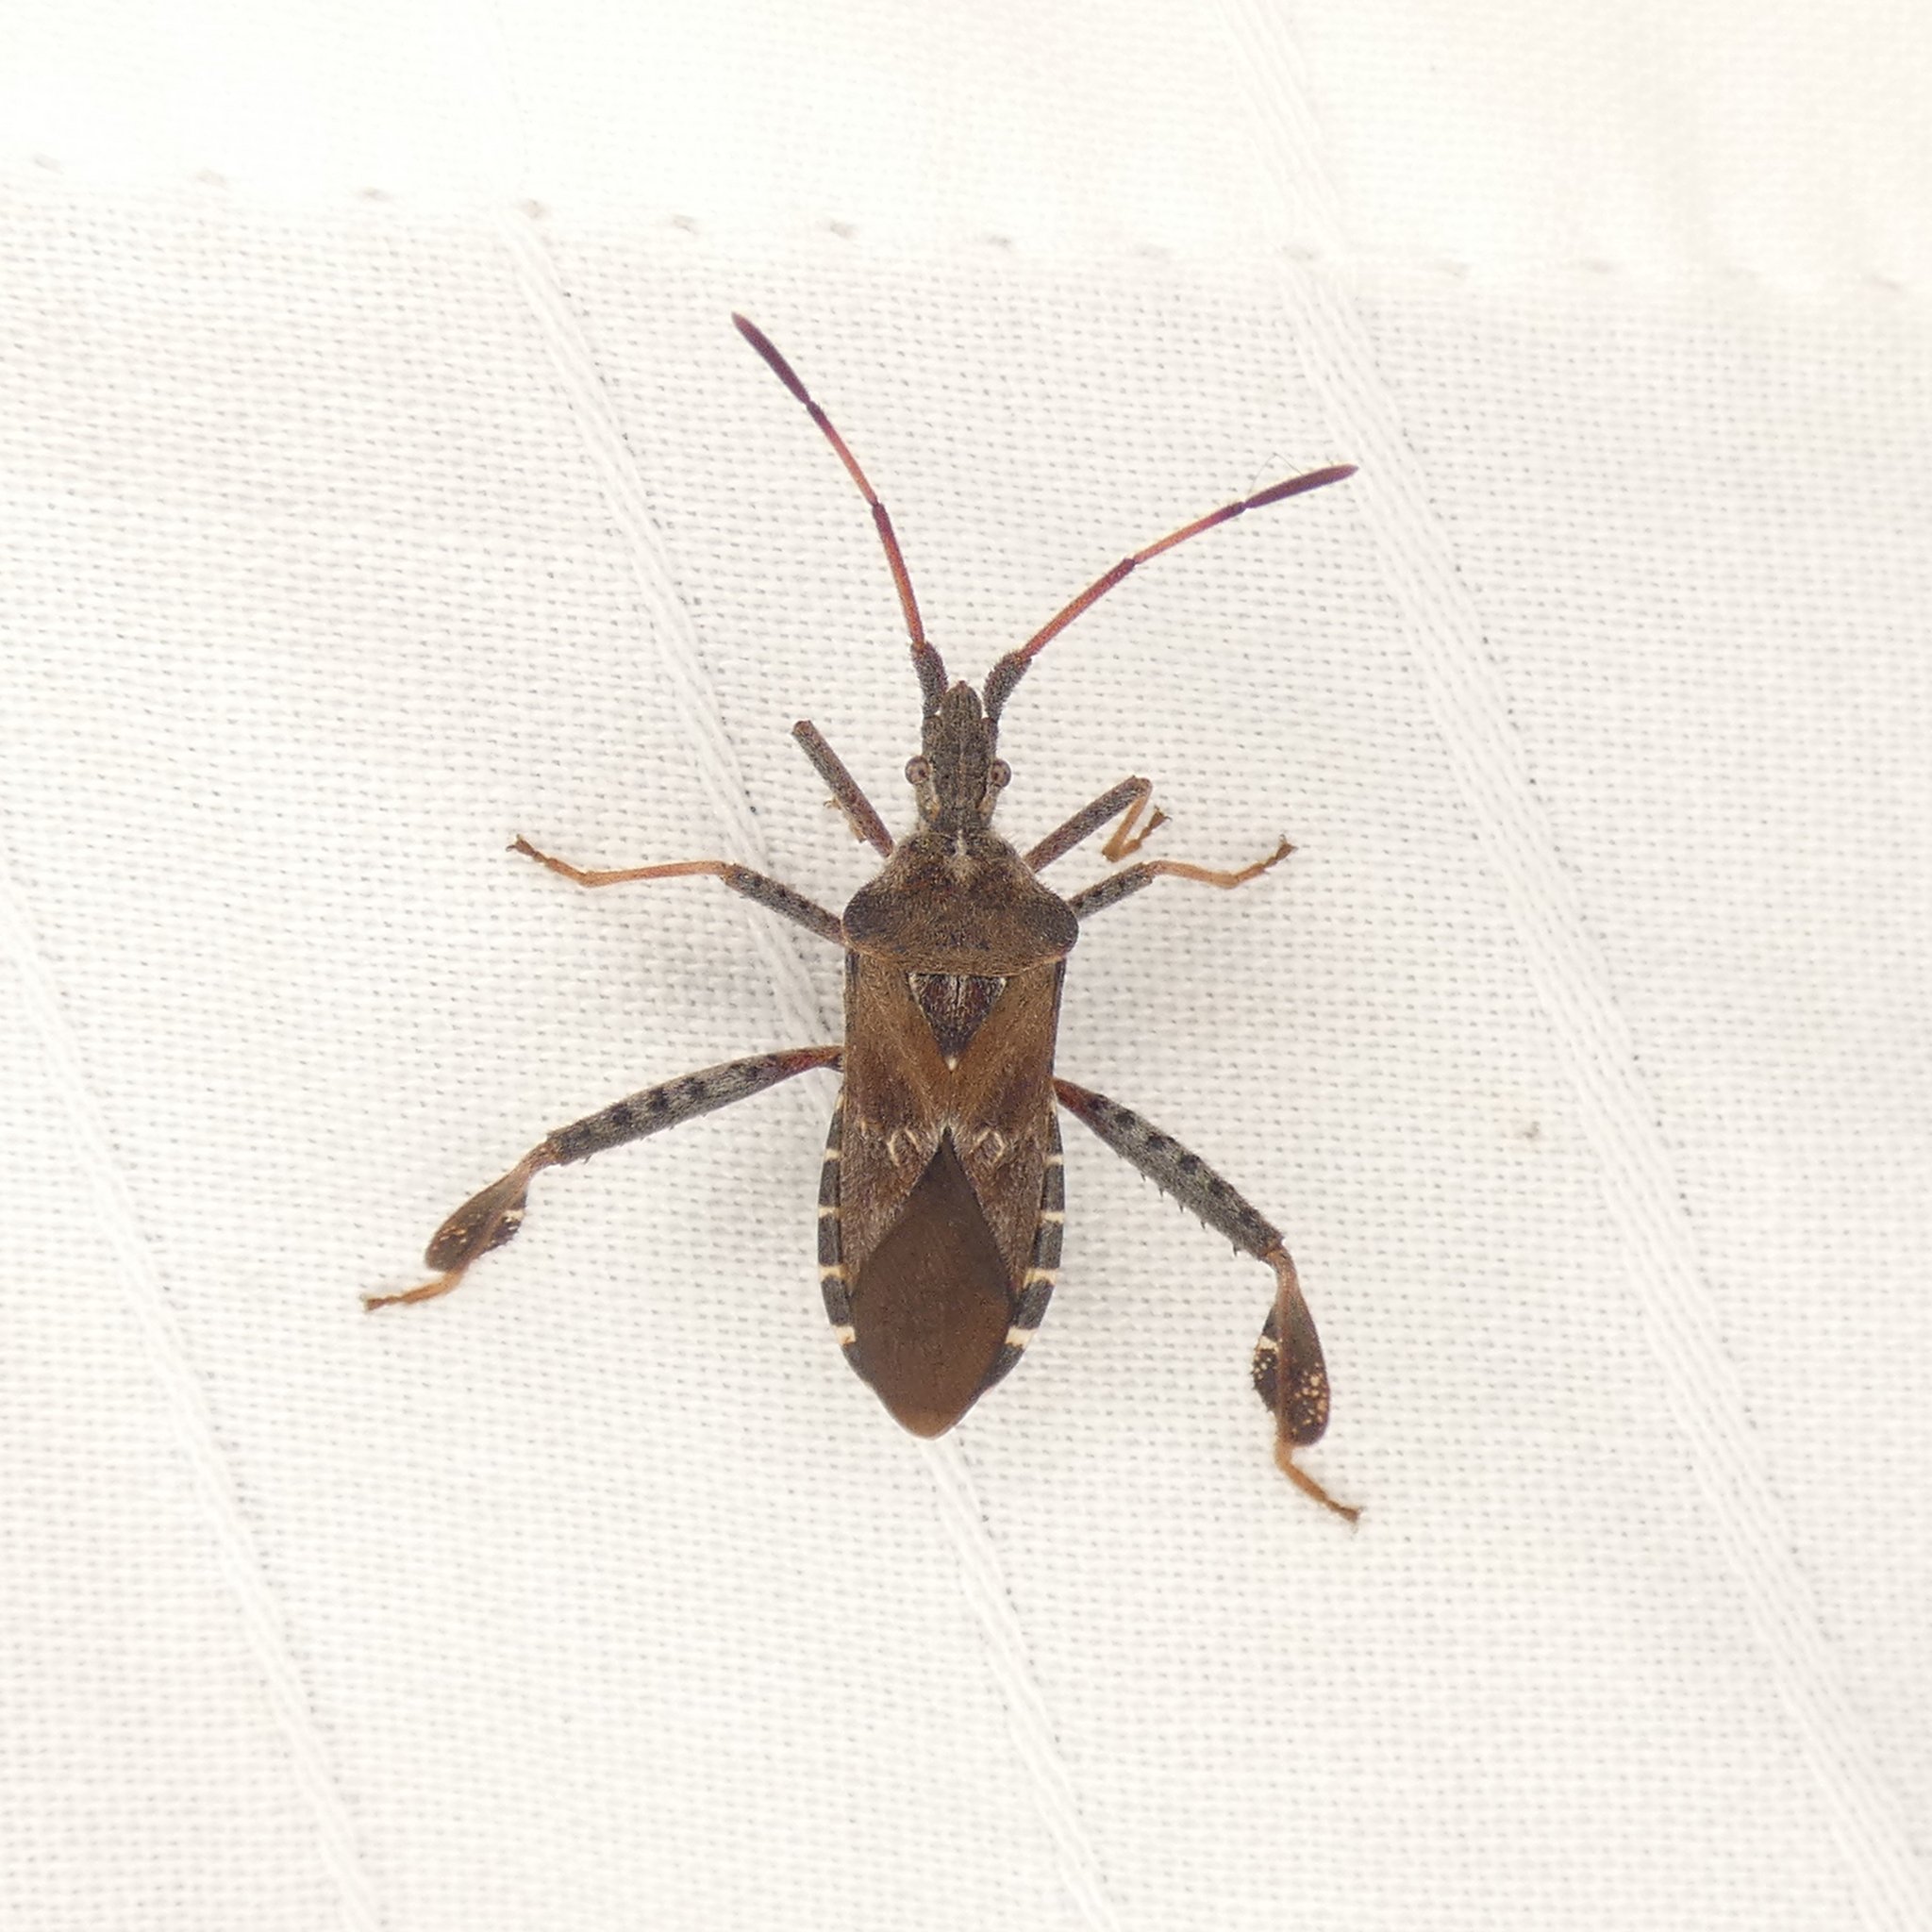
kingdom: Animalia
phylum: Arthropoda
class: Insecta
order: Hemiptera
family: Coreidae
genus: Leptoglossus
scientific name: Leptoglossus corculus
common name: Southern pine seed bug
